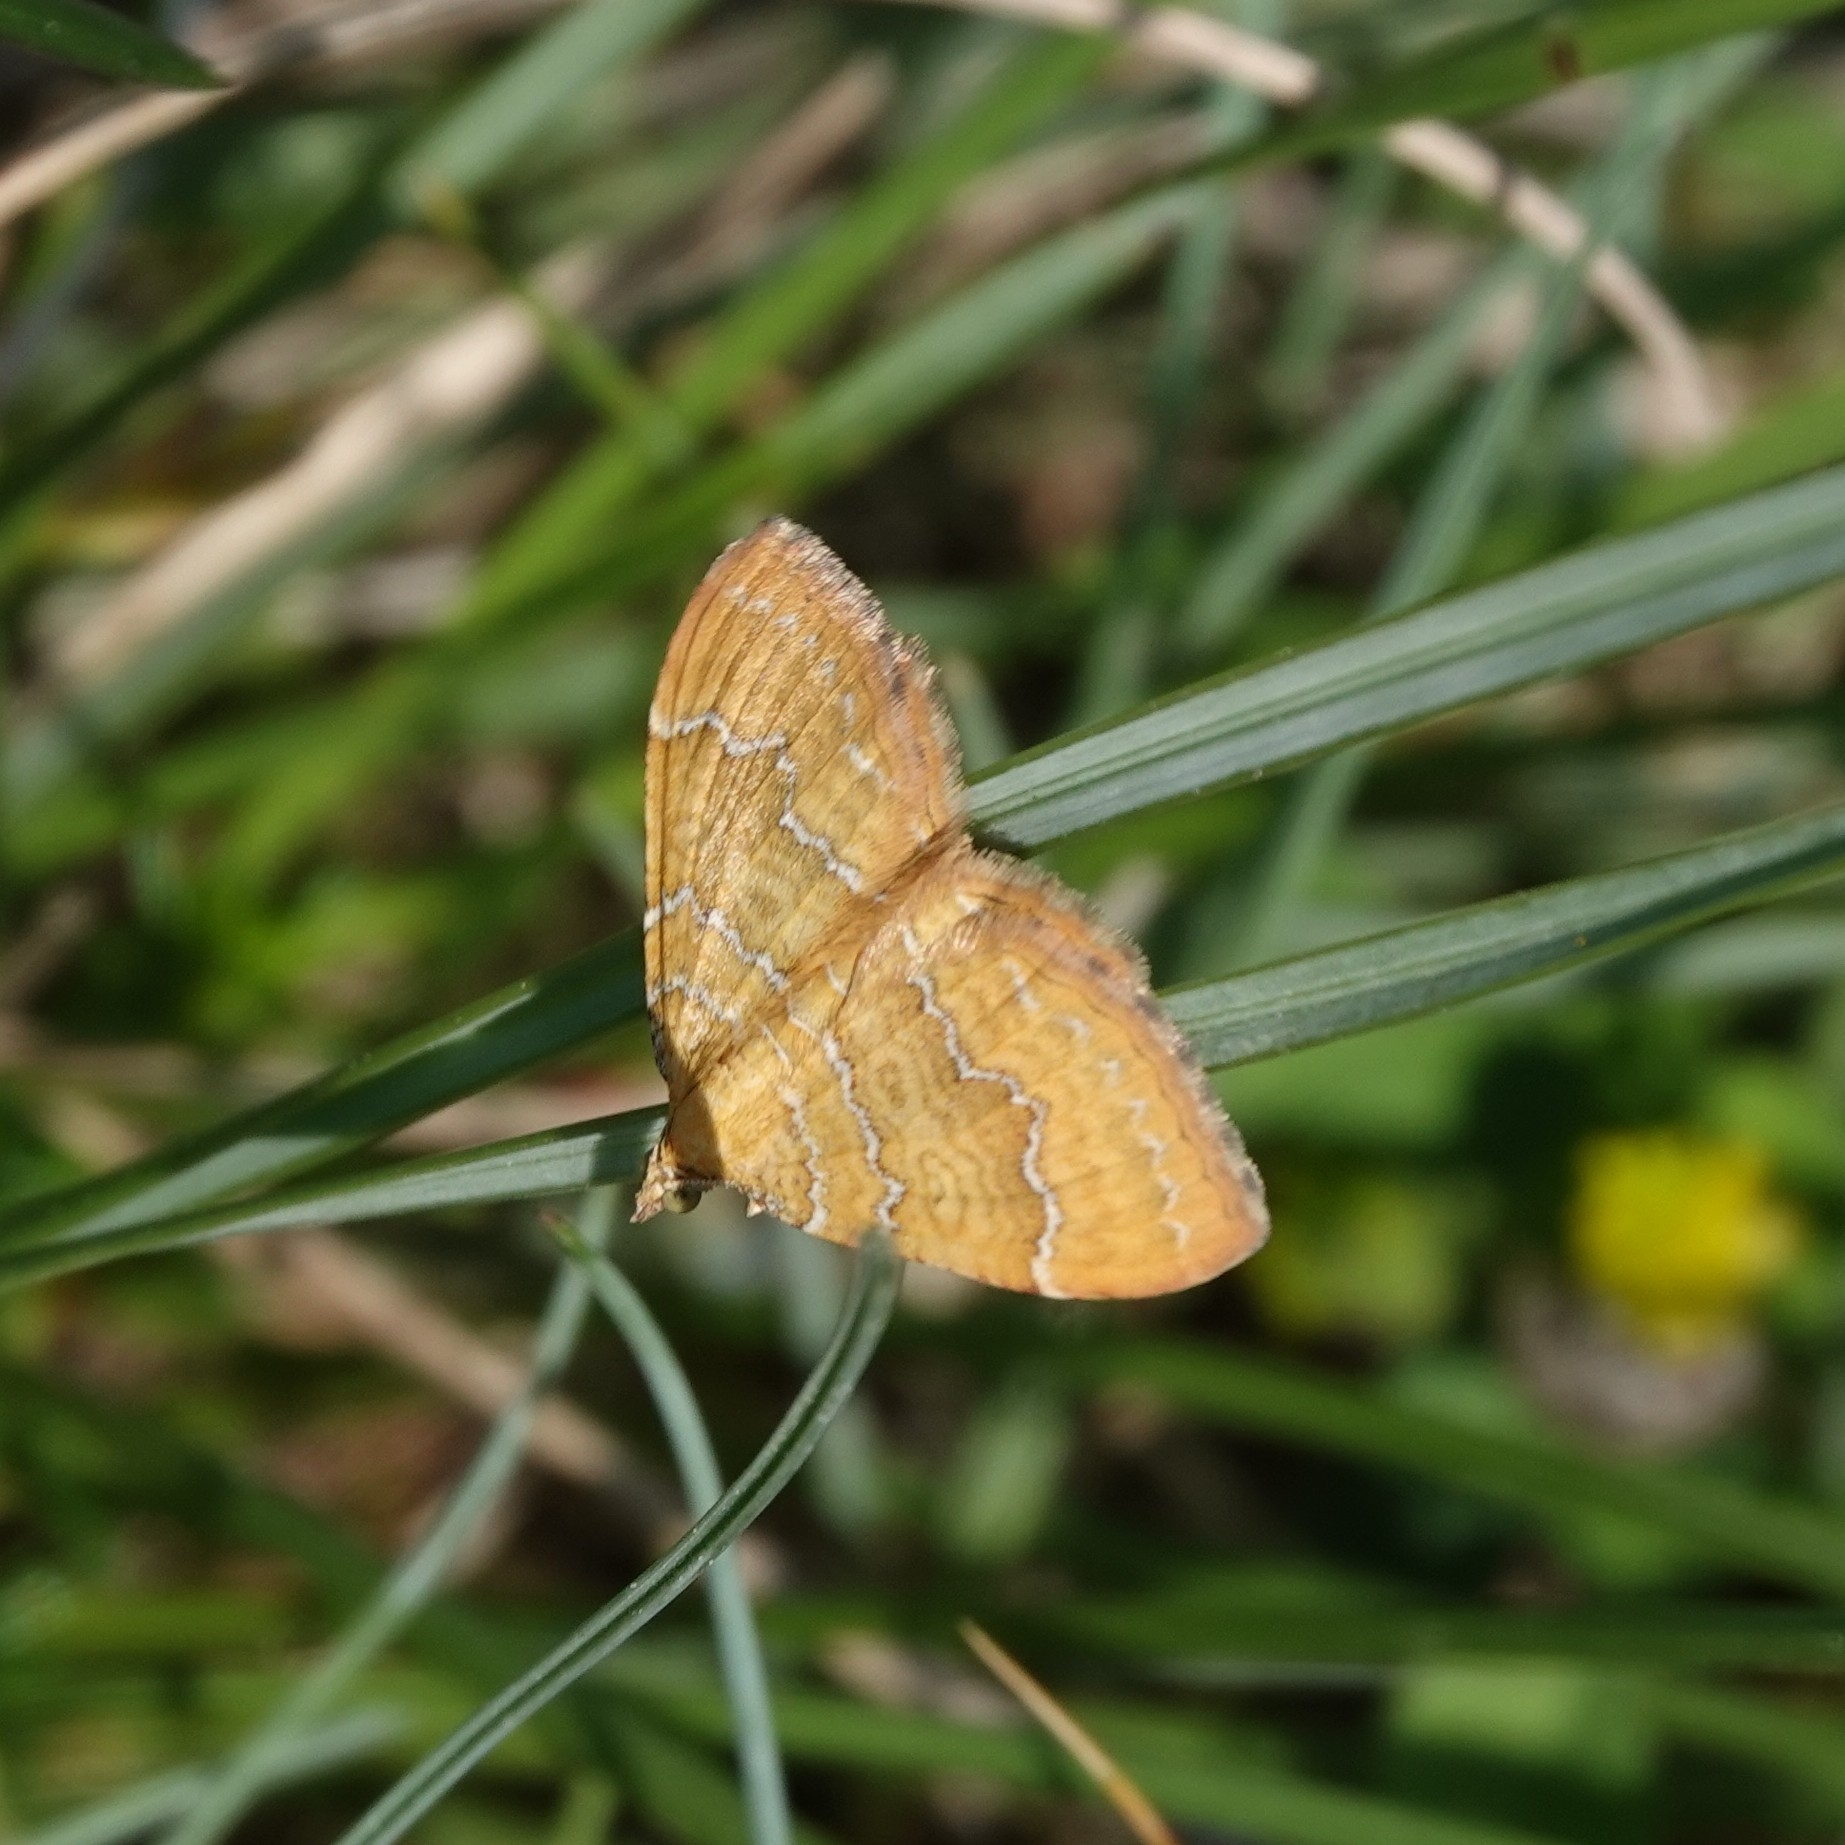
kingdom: Animalia
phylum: Arthropoda
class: Insecta
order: Lepidoptera
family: Geometridae
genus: Camptogramma
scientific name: Camptogramma bilineata
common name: Yellow shell
